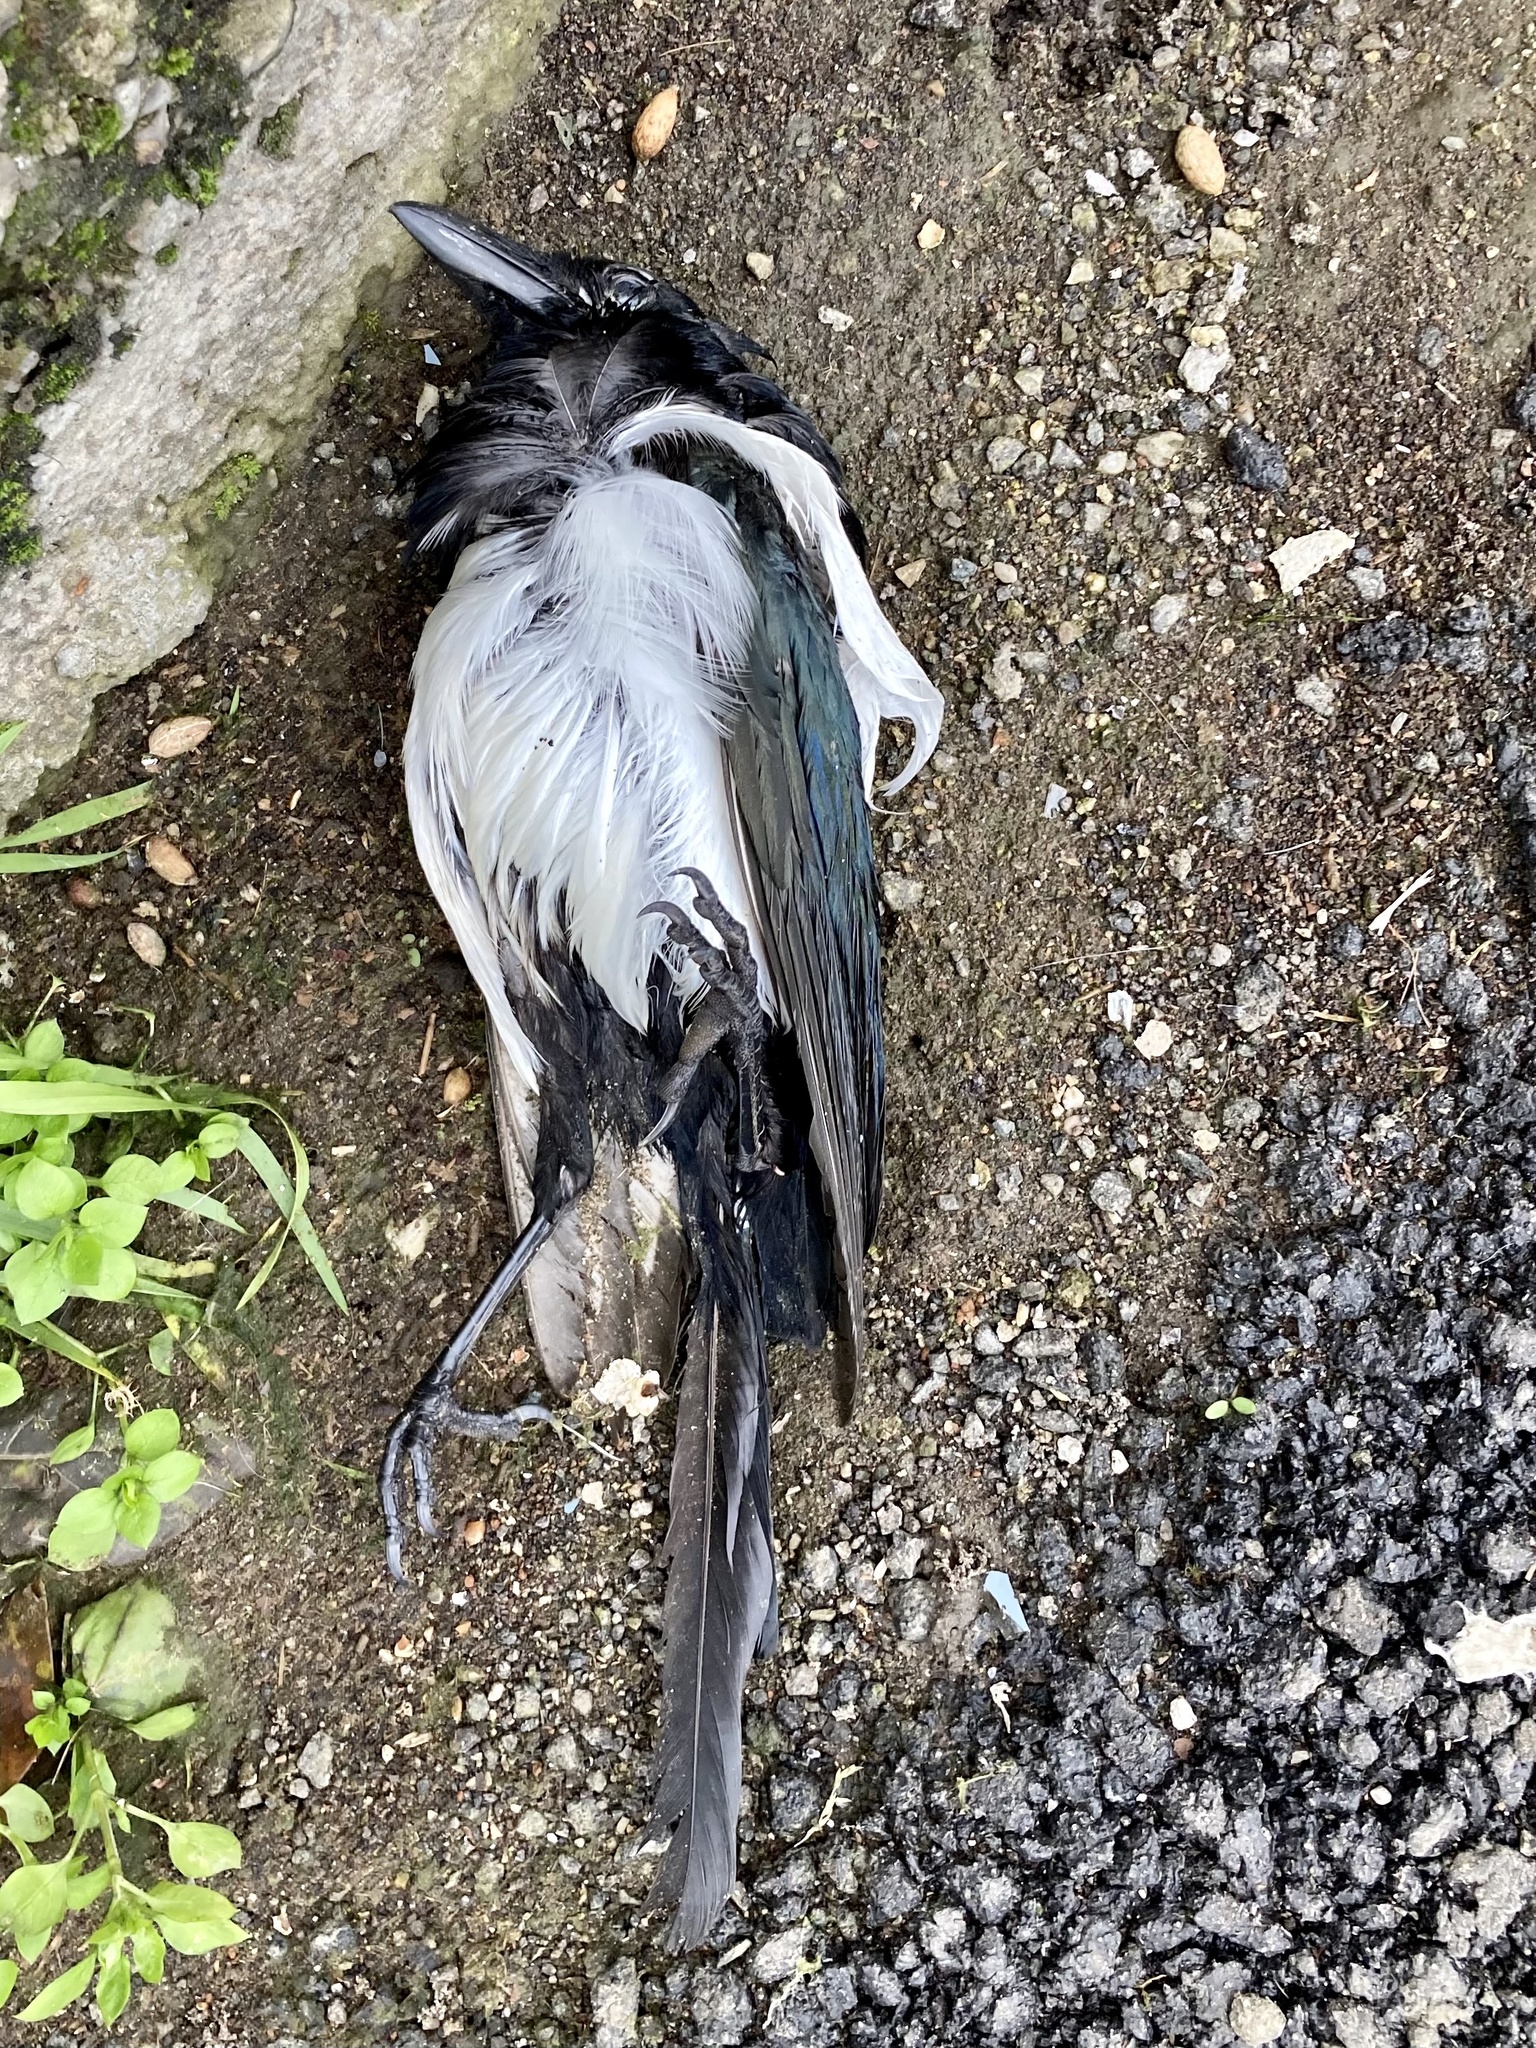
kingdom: Animalia
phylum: Chordata
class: Aves
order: Passeriformes
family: Corvidae
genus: Pica
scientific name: Pica pica
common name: Eurasian magpie
